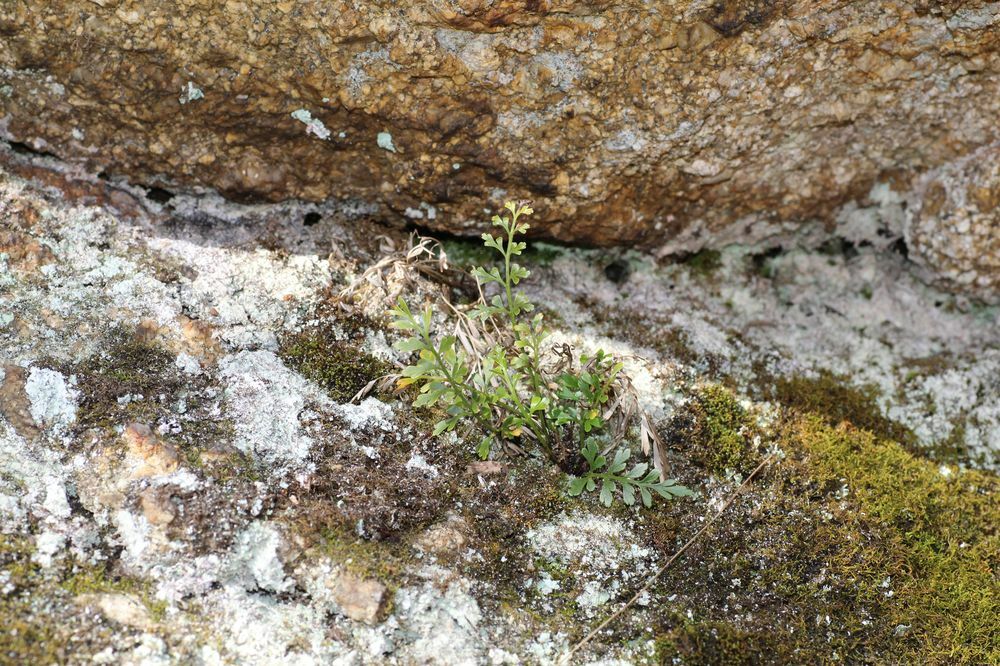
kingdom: Plantae
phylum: Tracheophyta
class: Polypodiopsida
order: Polypodiales
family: Aspleniaceae
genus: Asplenium
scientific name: Asplenium aethiopicum
